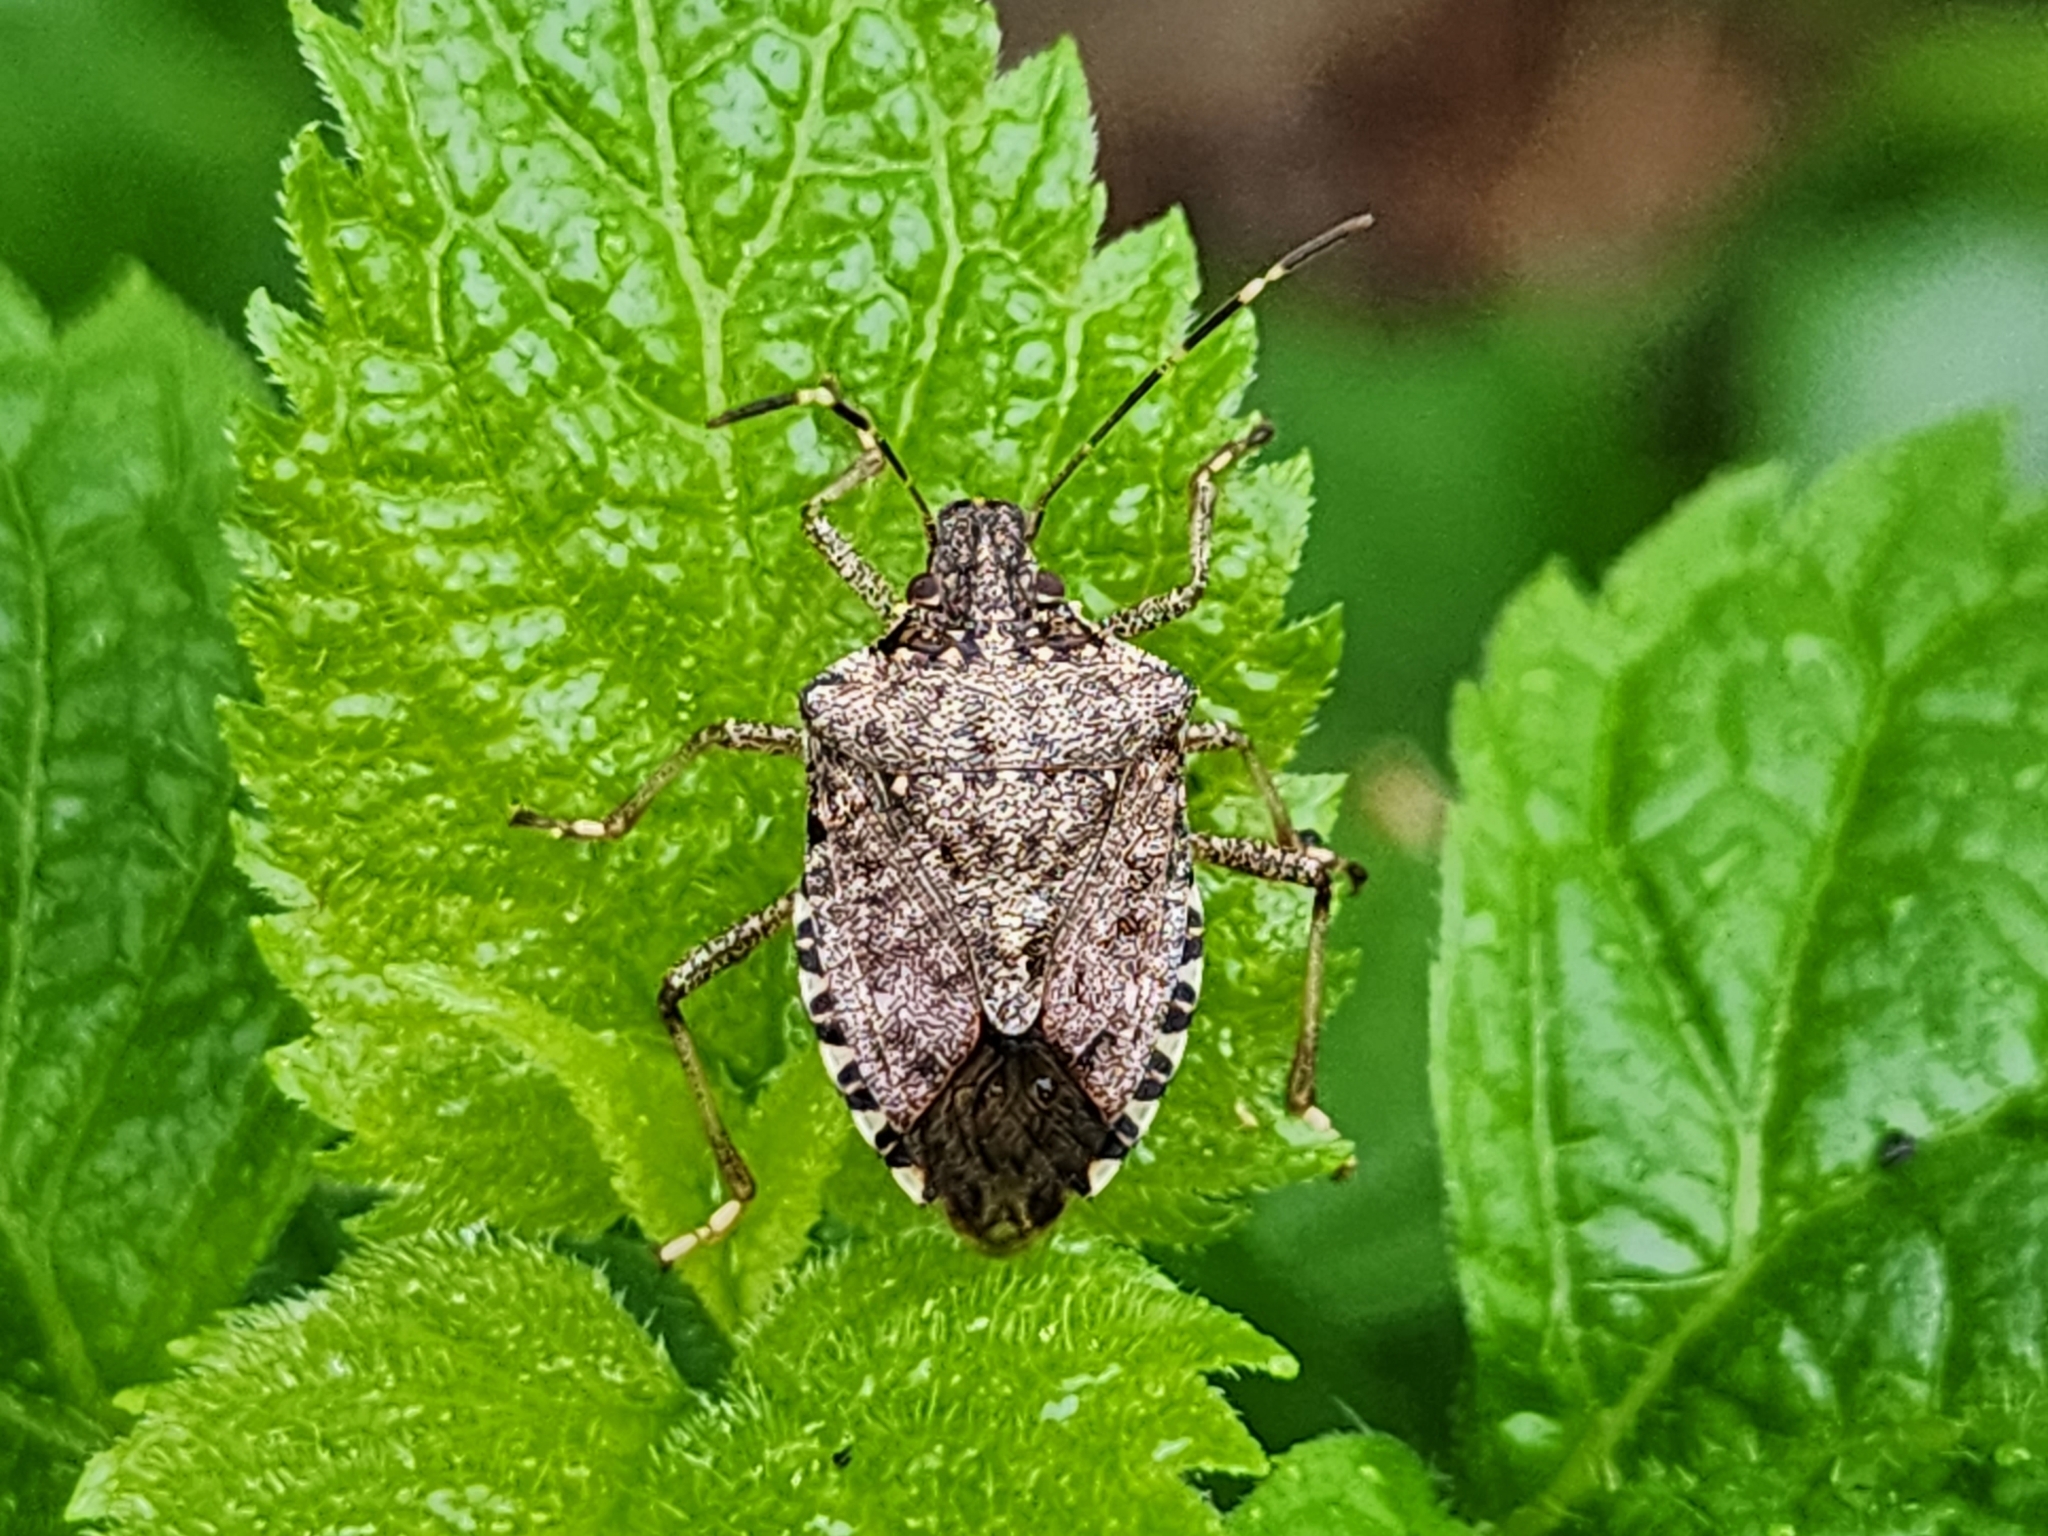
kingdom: Animalia
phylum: Arthropoda
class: Insecta
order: Hemiptera
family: Pentatomidae
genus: Halyomorpha
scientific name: Halyomorpha halys
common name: Brown marmorated stink bug
